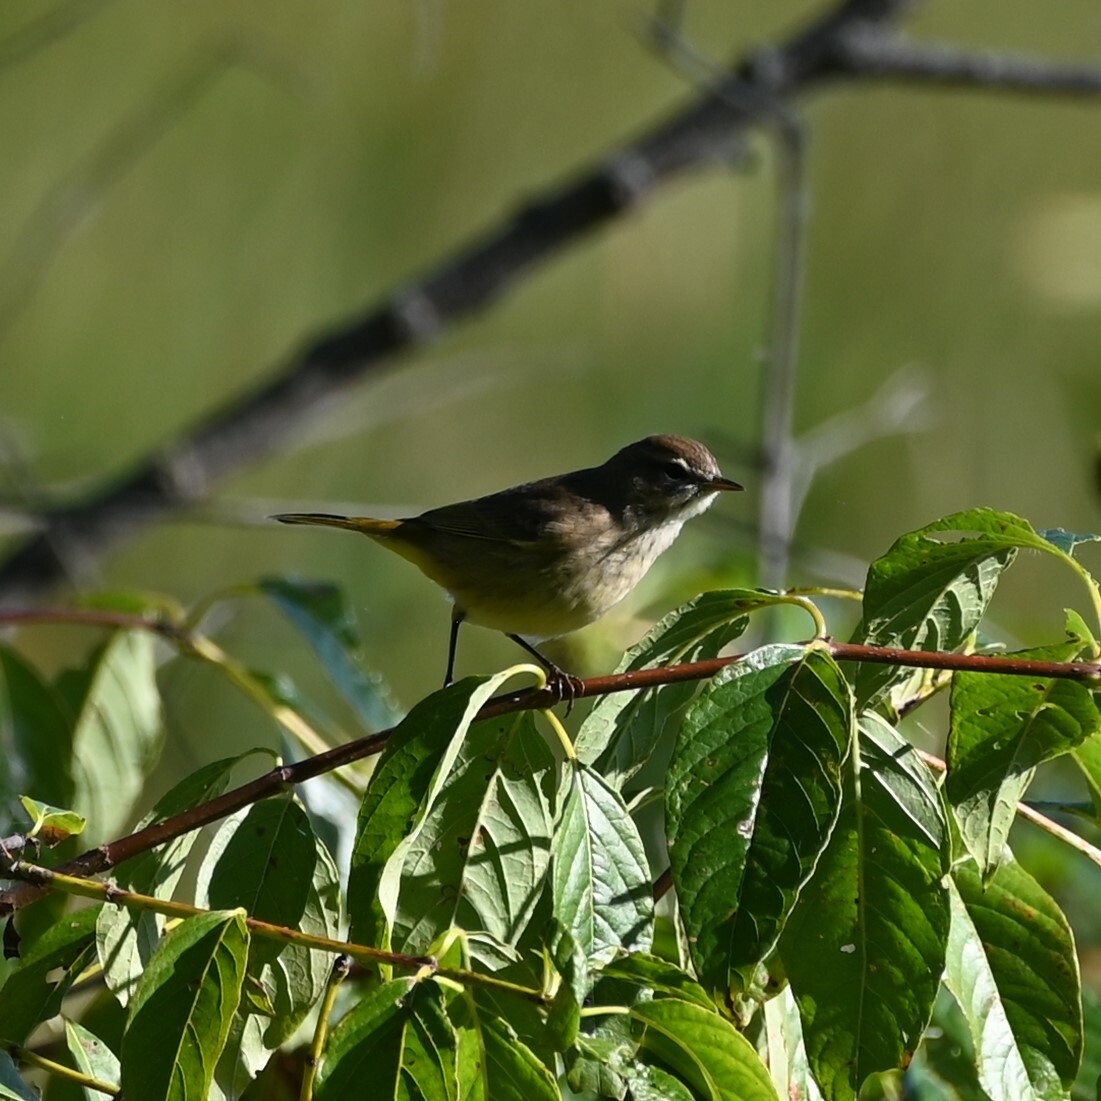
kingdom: Animalia
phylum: Chordata
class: Aves
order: Passeriformes
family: Parulidae
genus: Setophaga
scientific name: Setophaga palmarum
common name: Palm warbler
